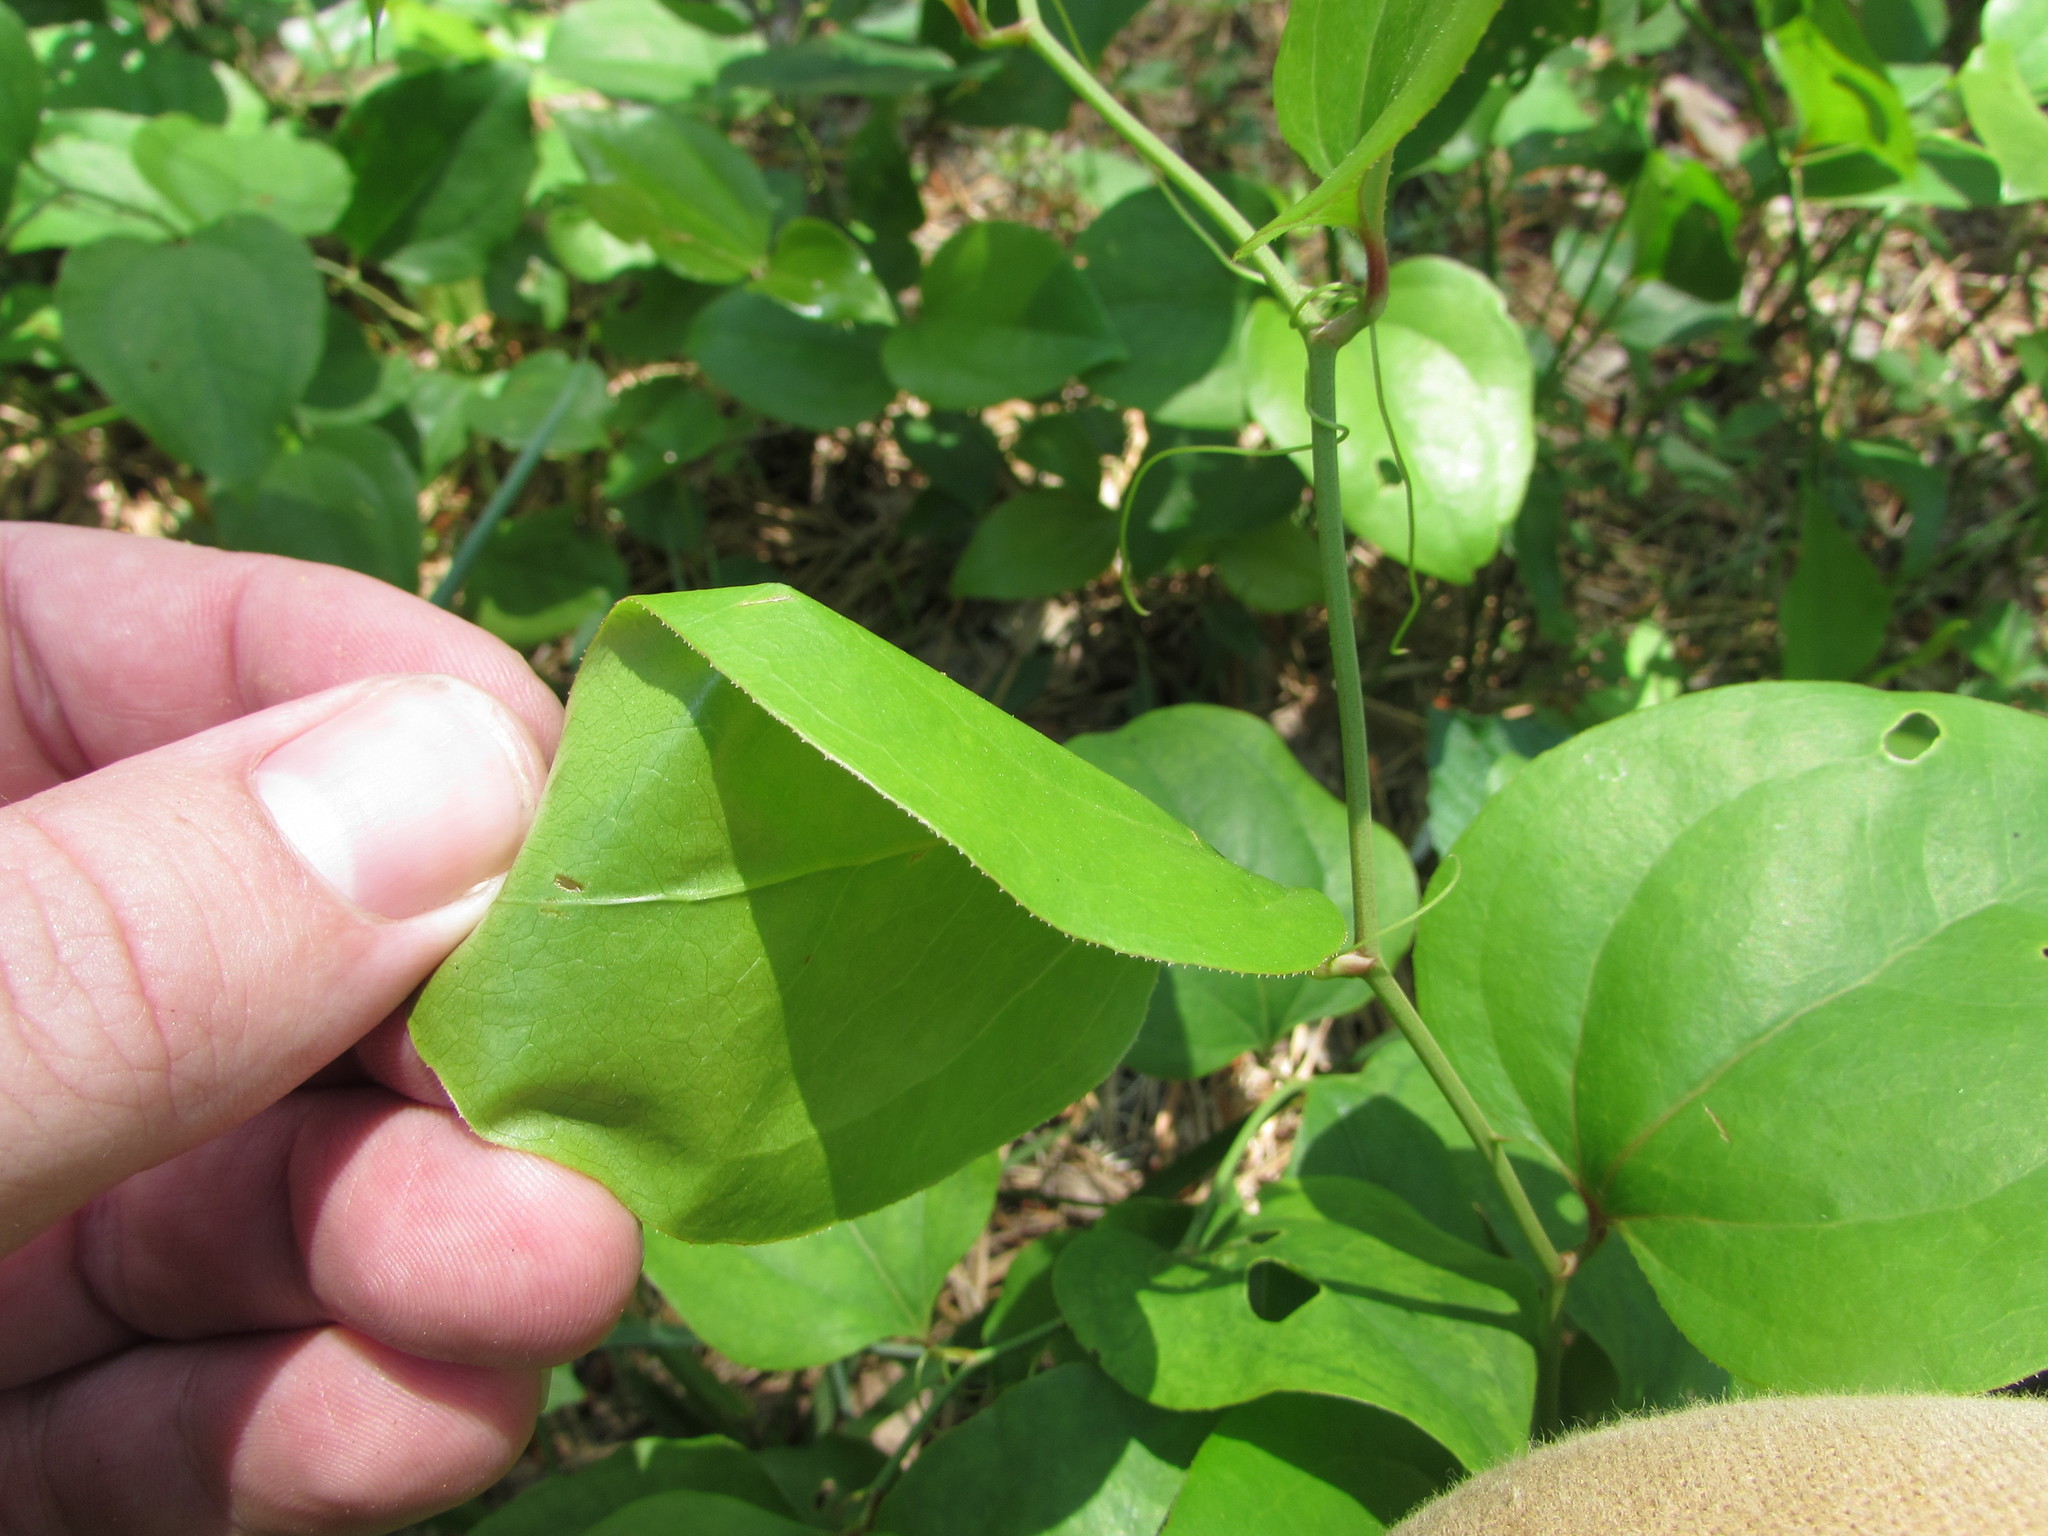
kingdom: Plantae
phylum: Tracheophyta
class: Liliopsida
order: Liliales
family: Smilacaceae
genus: Smilax
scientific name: Smilax rotundifolia
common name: Bullbriar
